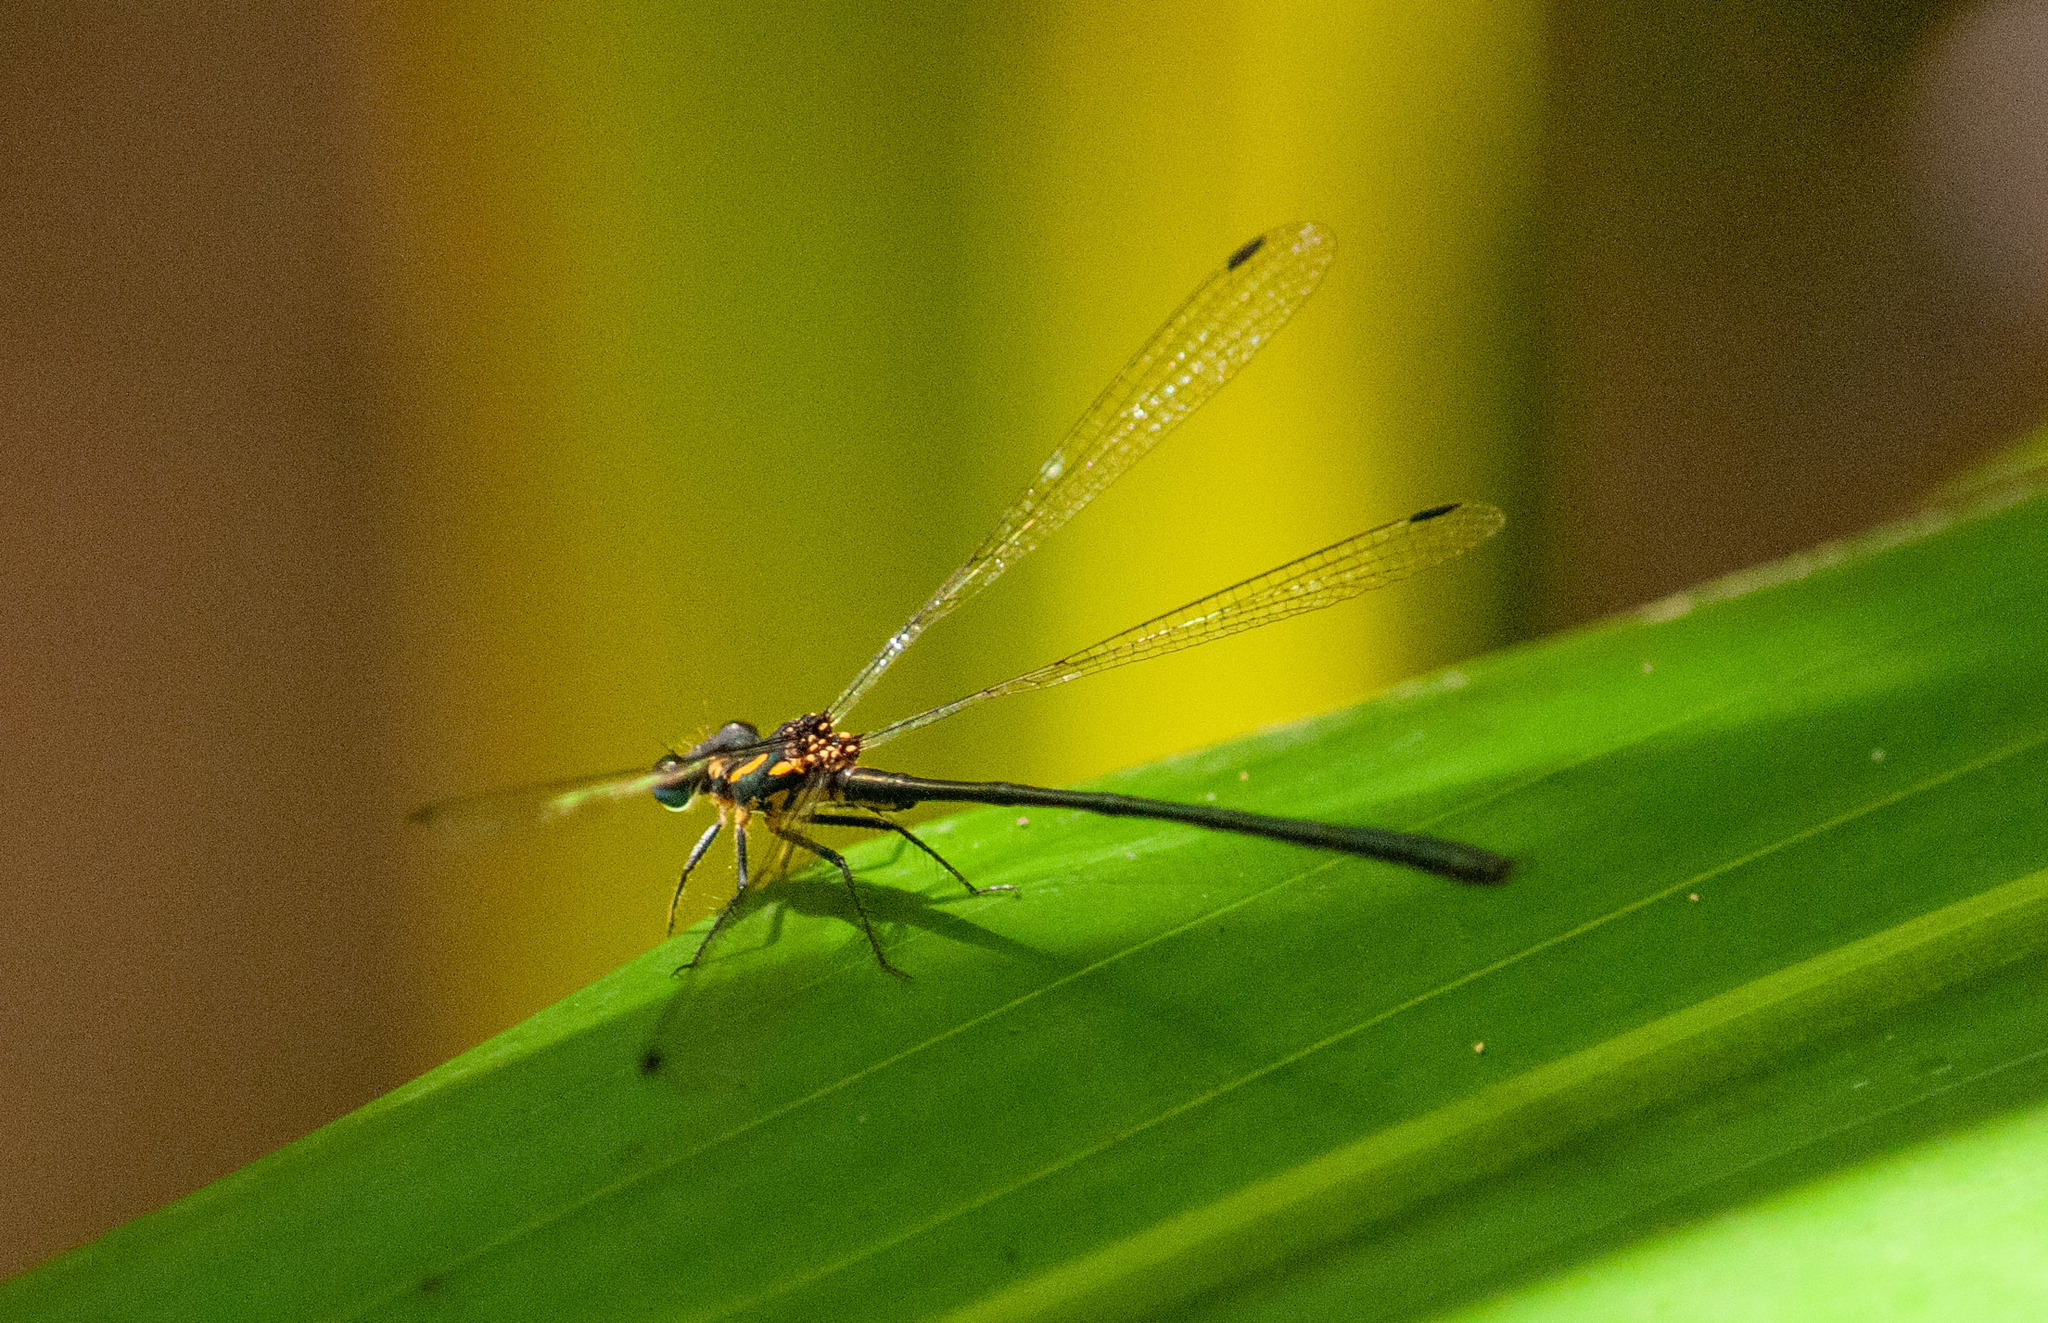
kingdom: Animalia
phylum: Arthropoda
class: Insecta
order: Odonata
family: Argiolestidae
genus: Griseargiolestes
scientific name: Griseargiolestes fontanus
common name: Springs flatwing
